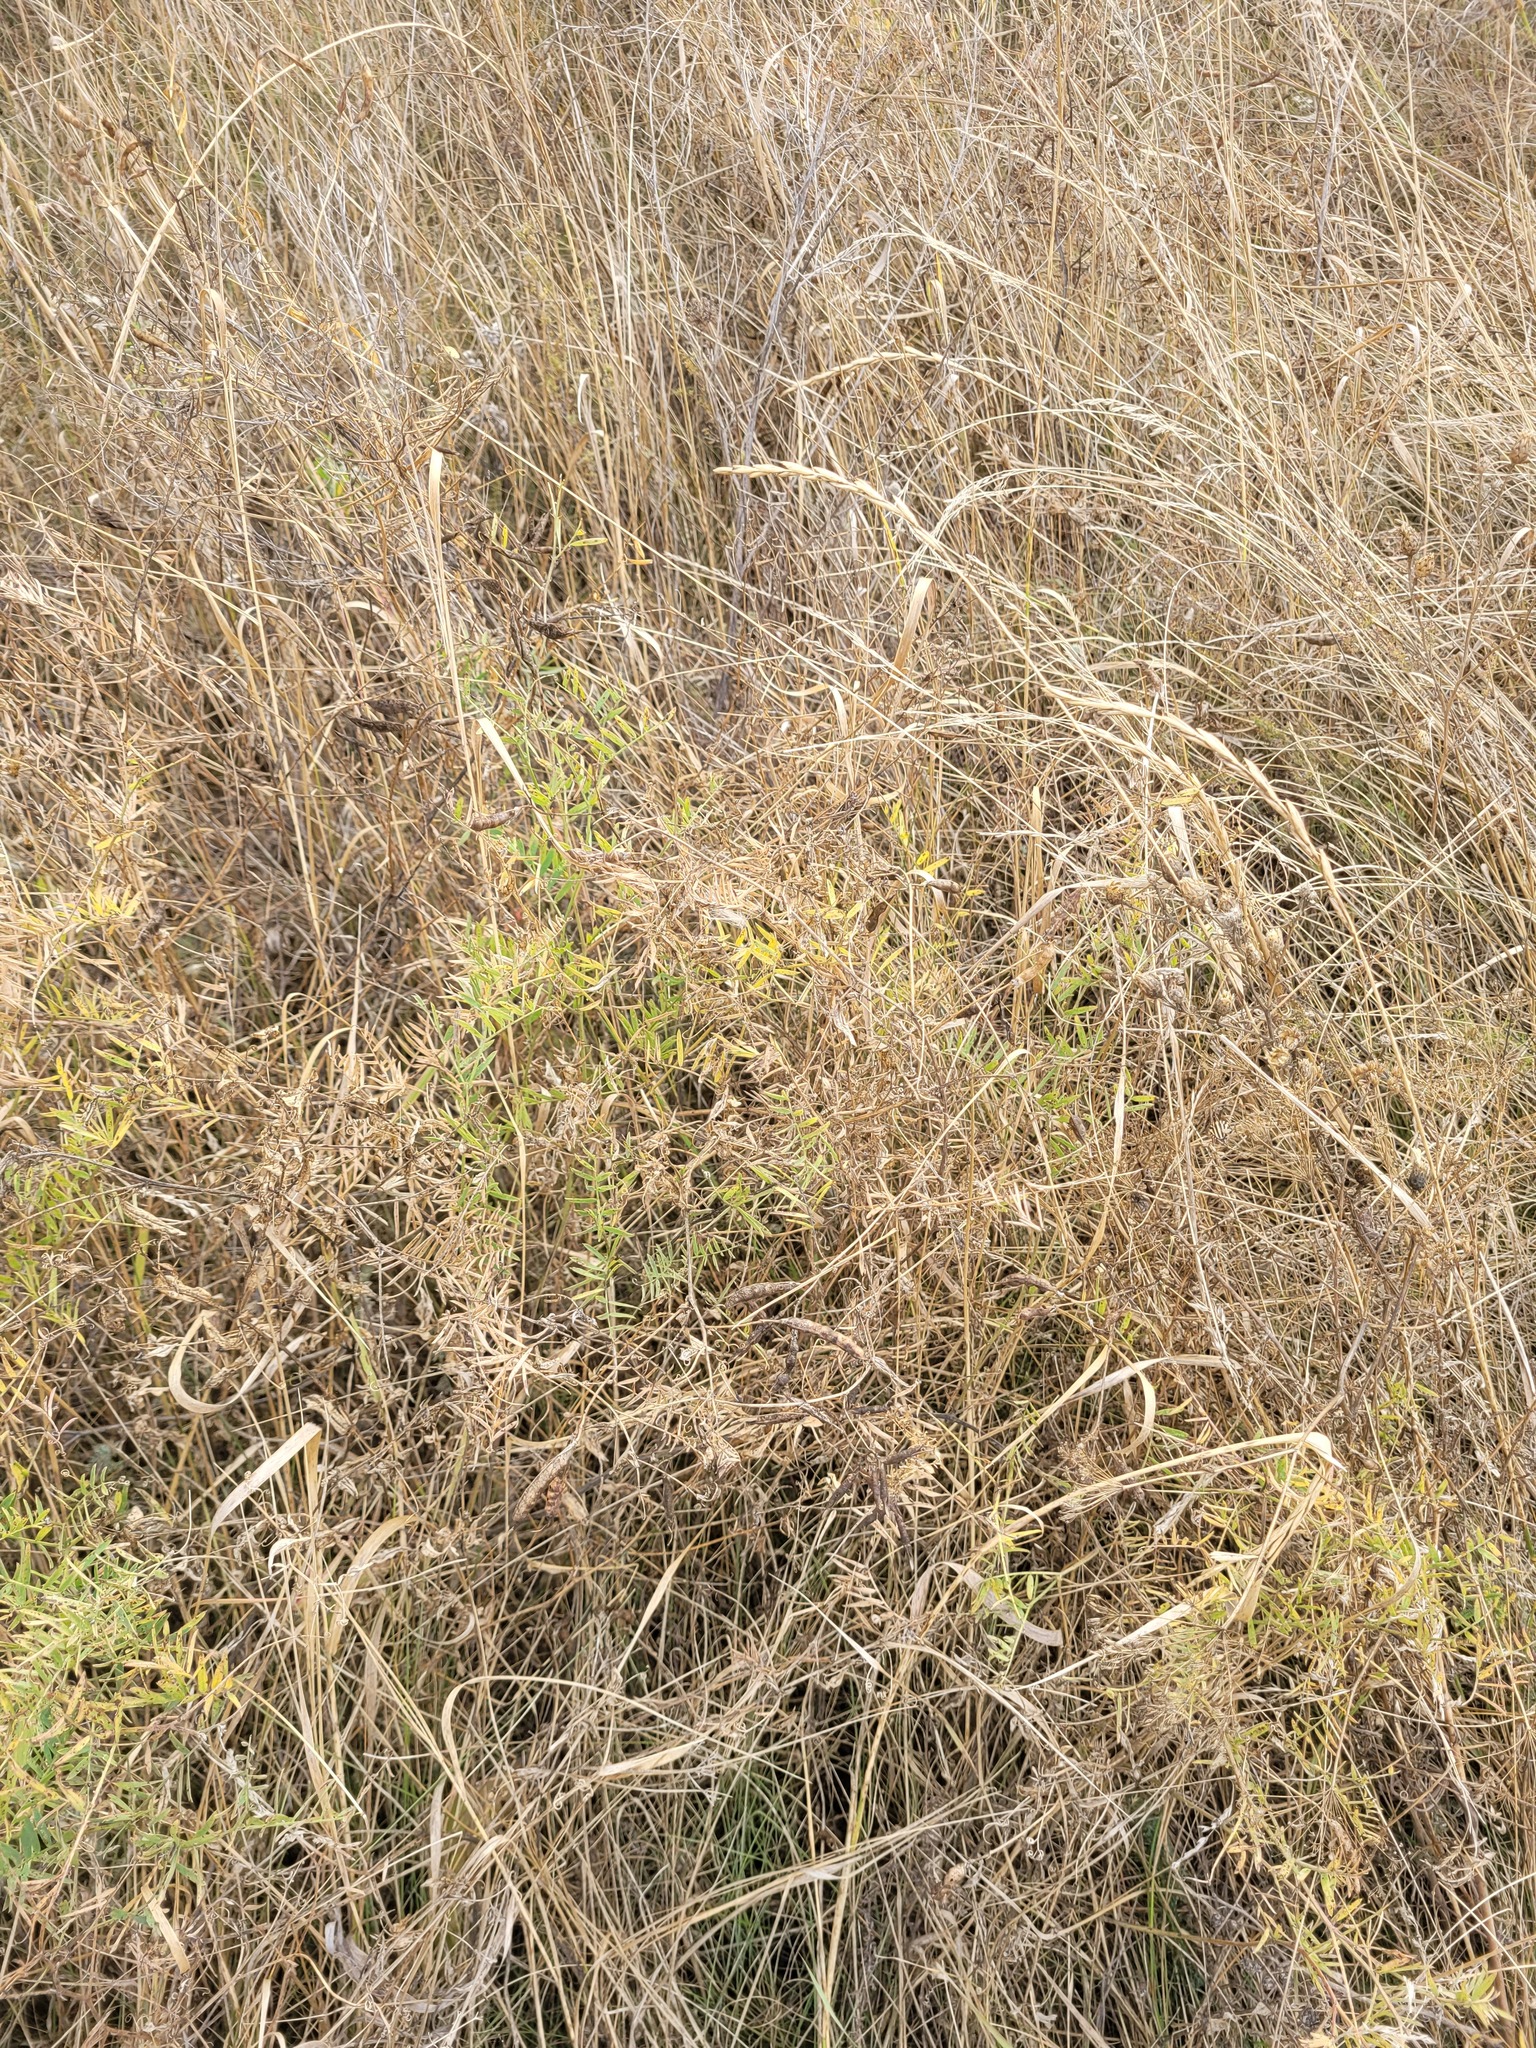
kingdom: Plantae
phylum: Tracheophyta
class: Magnoliopsida
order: Fabales
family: Fabaceae
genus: Vicia
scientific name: Vicia tenuifolia
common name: Fine-leaved vetch
